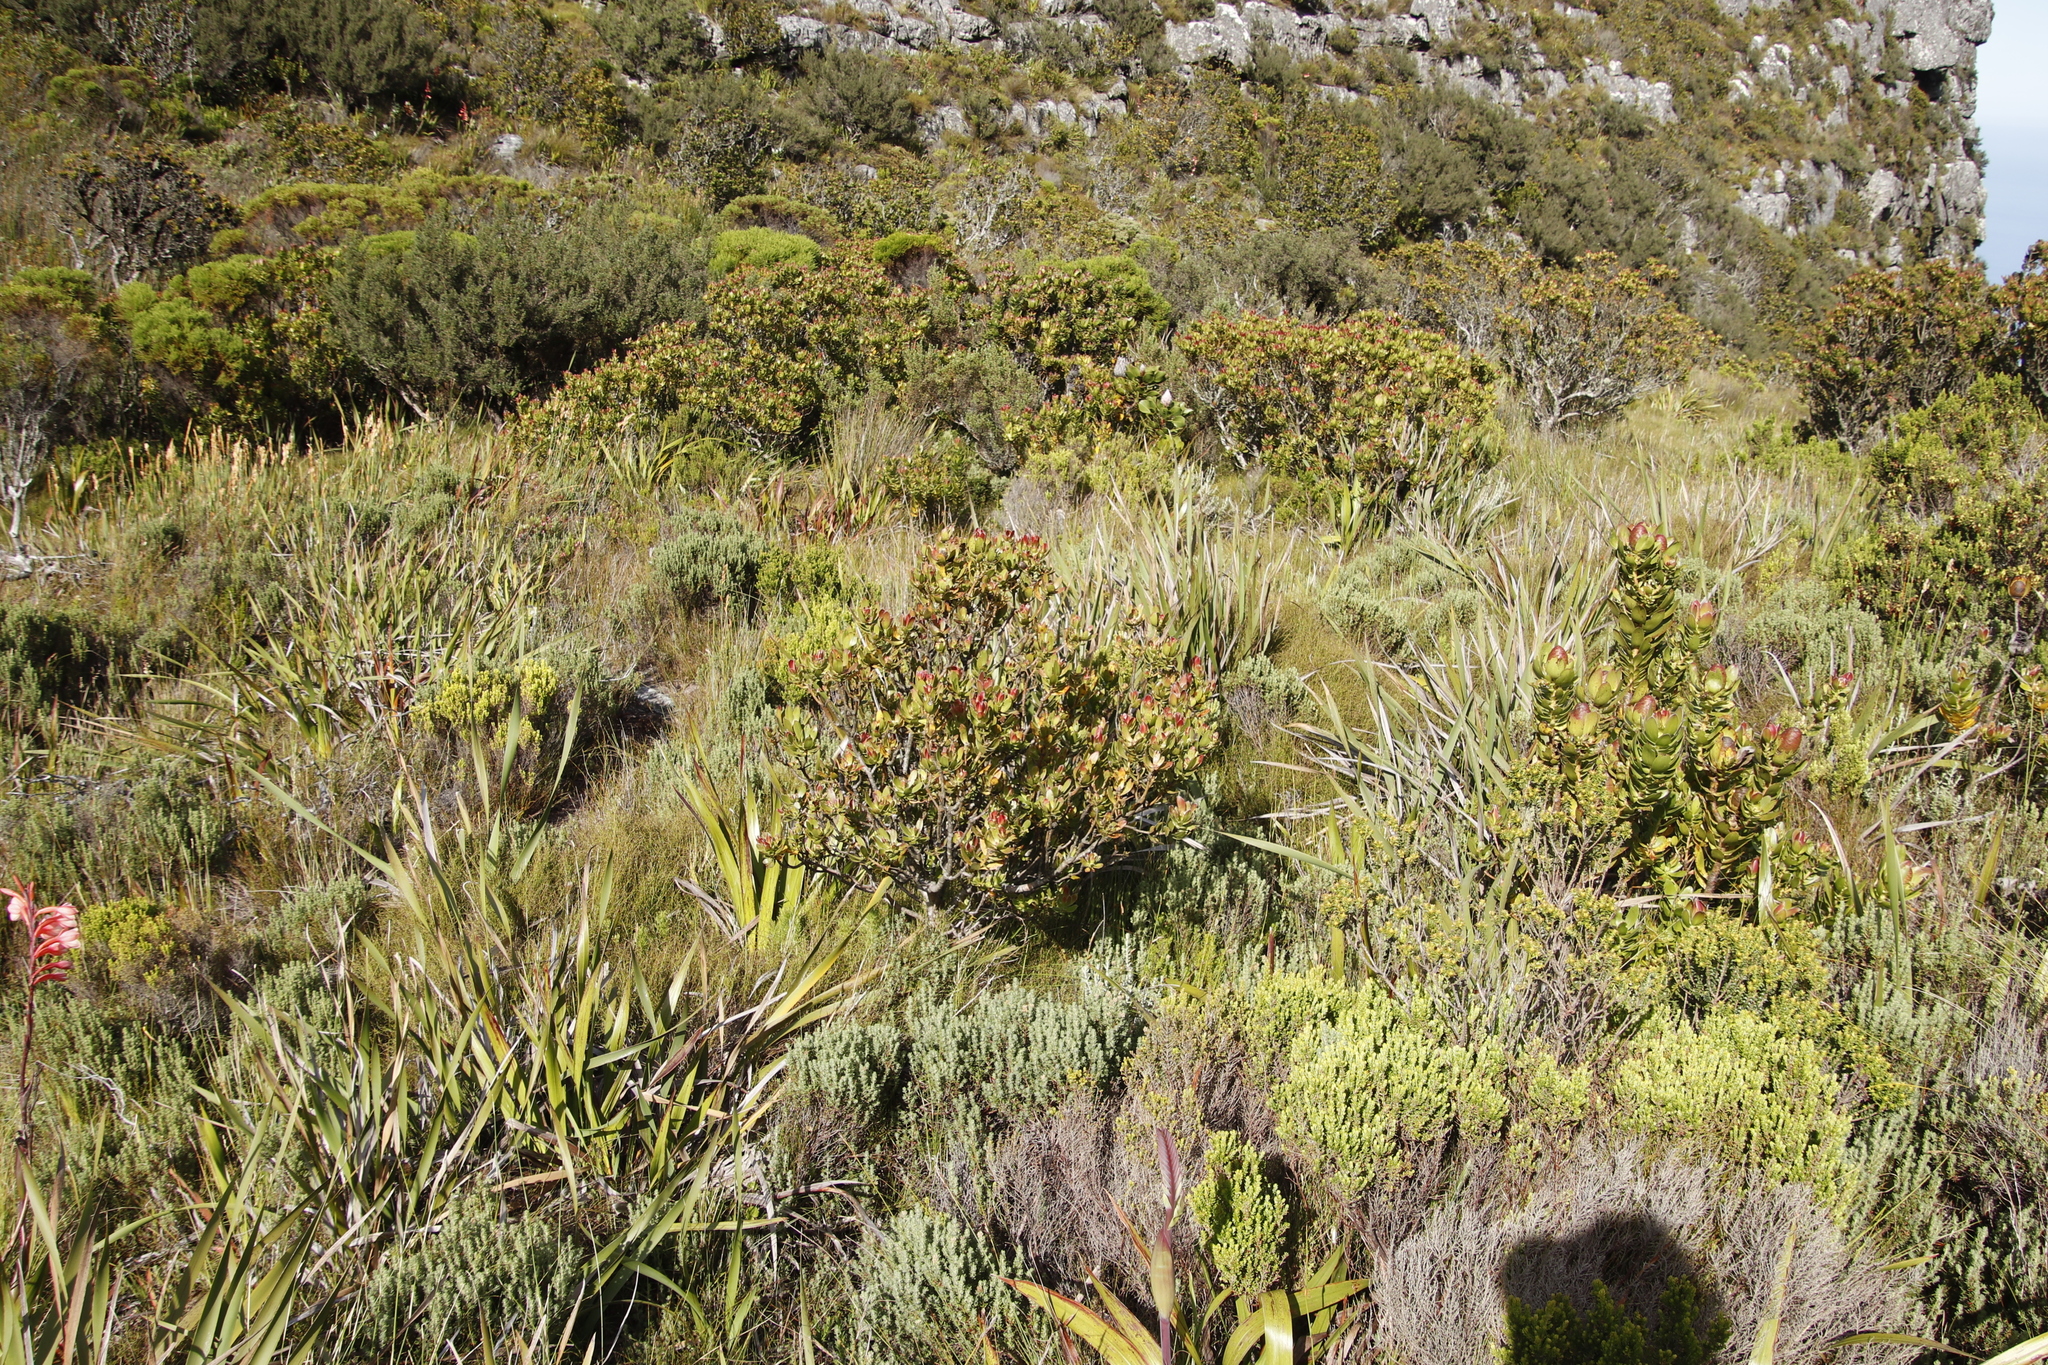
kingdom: Plantae
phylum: Tracheophyta
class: Magnoliopsida
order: Proteales
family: Proteaceae
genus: Leucadendron
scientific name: Leucadendron strobilinum
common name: Mountain rose
